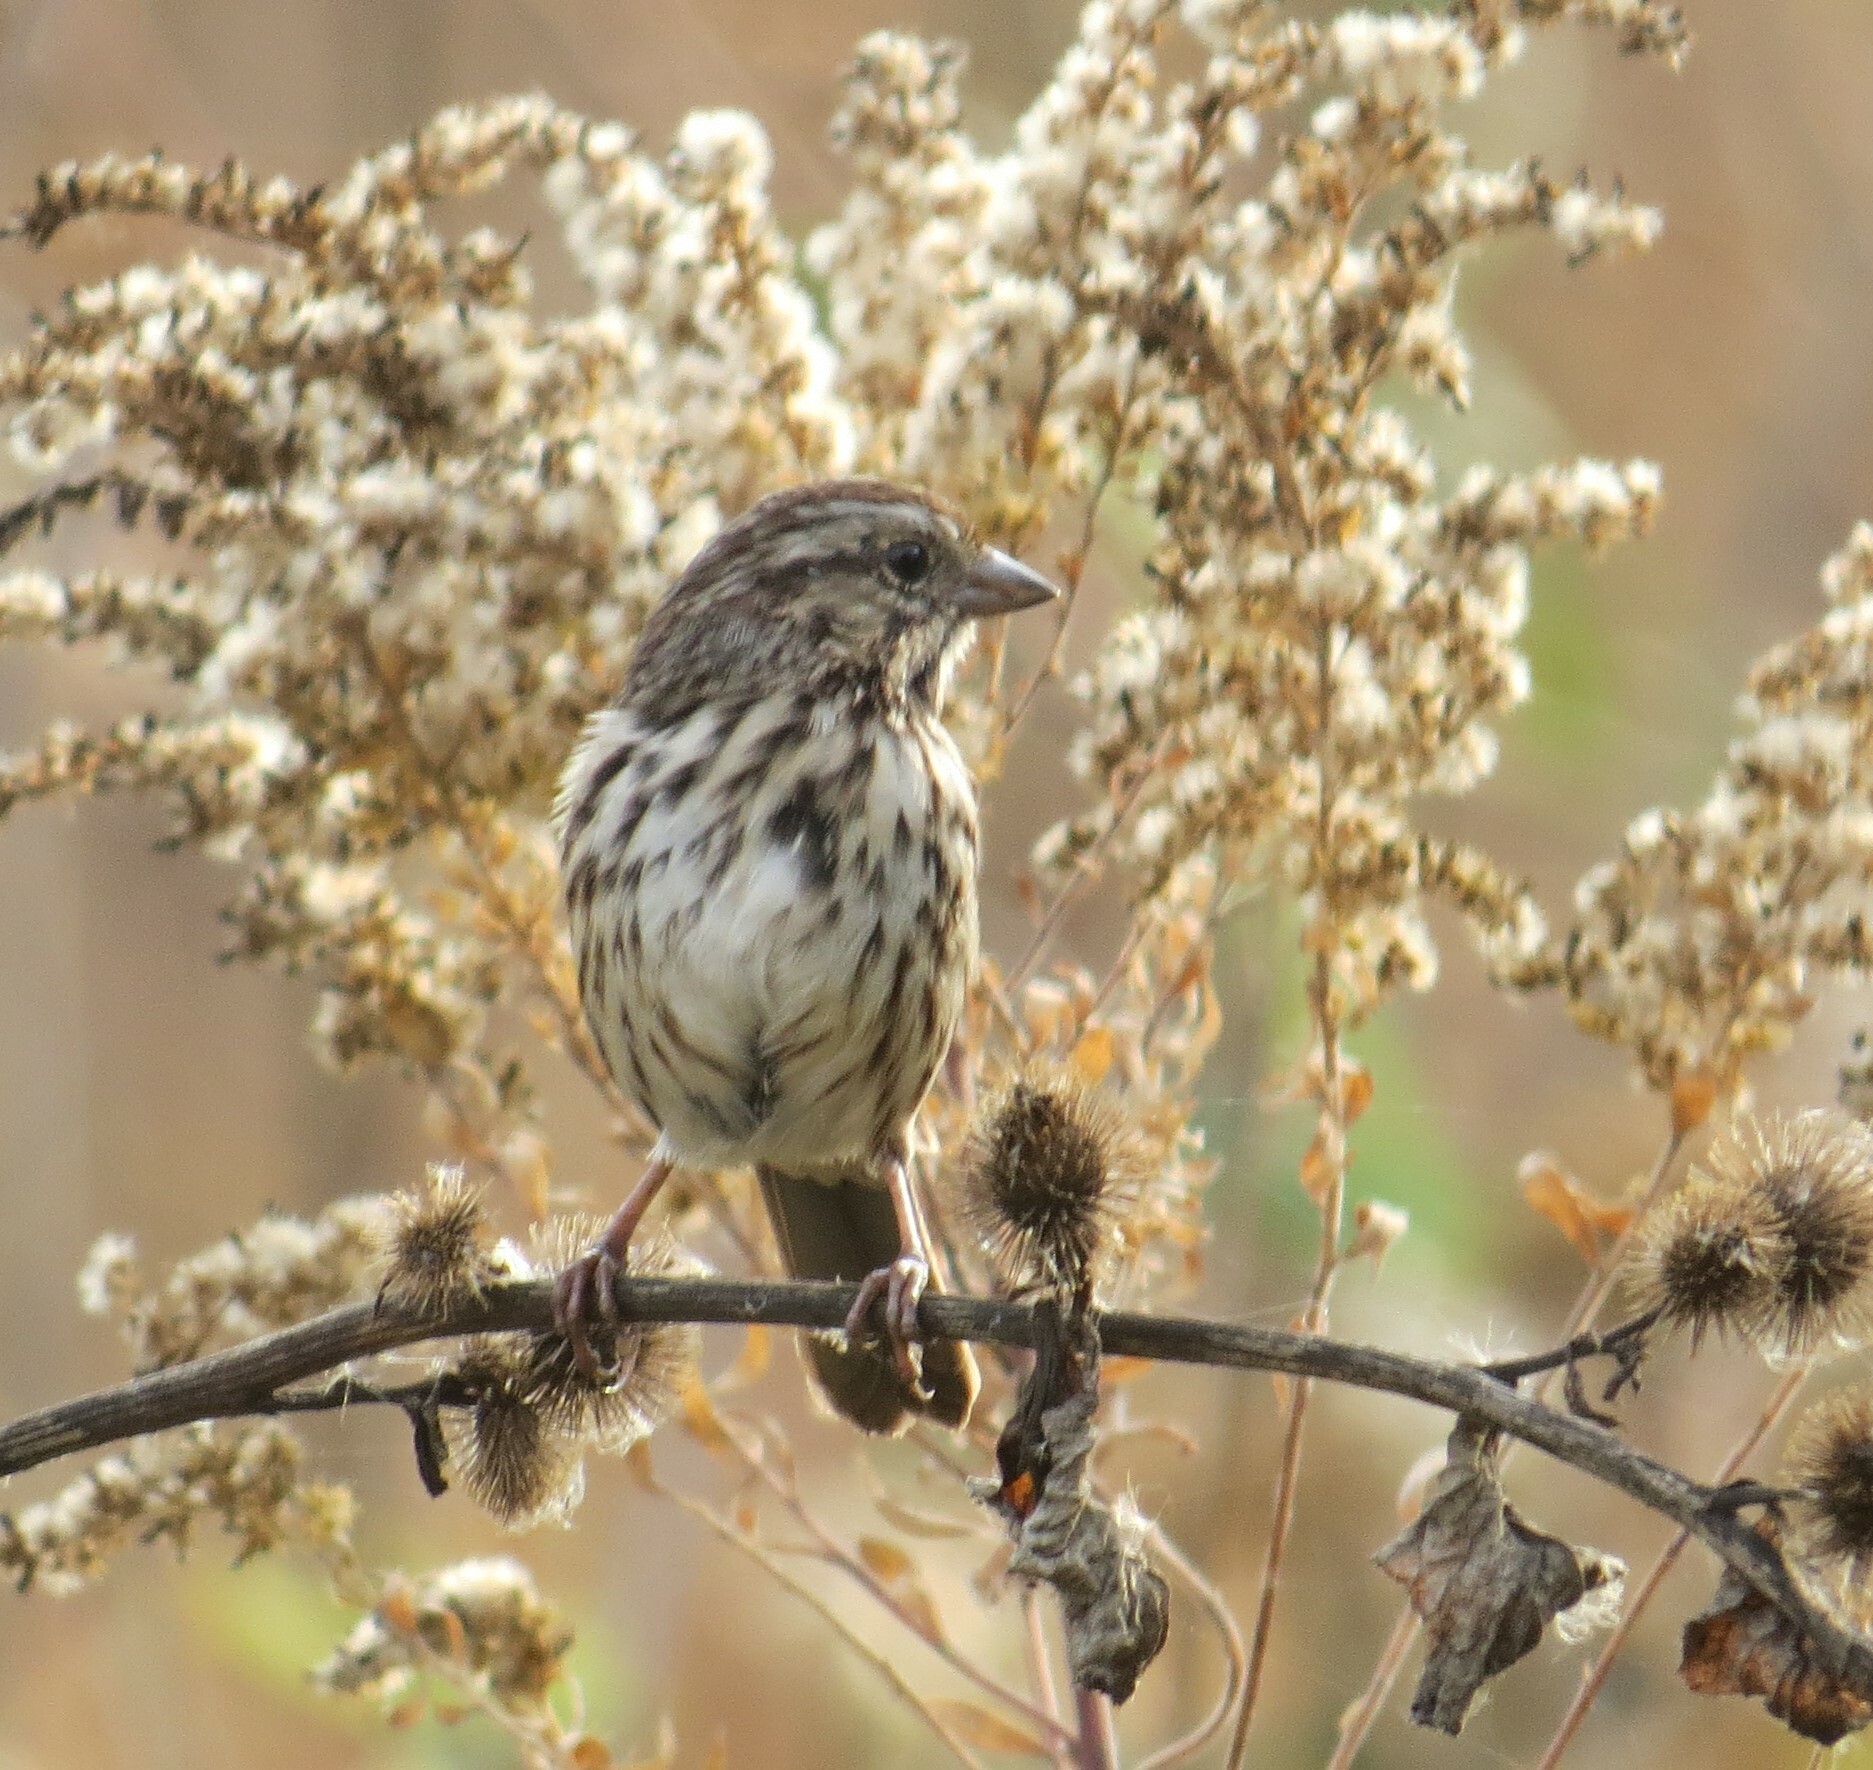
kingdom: Animalia
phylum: Chordata
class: Aves
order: Passeriformes
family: Passerellidae
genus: Melospiza
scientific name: Melospiza melodia
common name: Song sparrow
